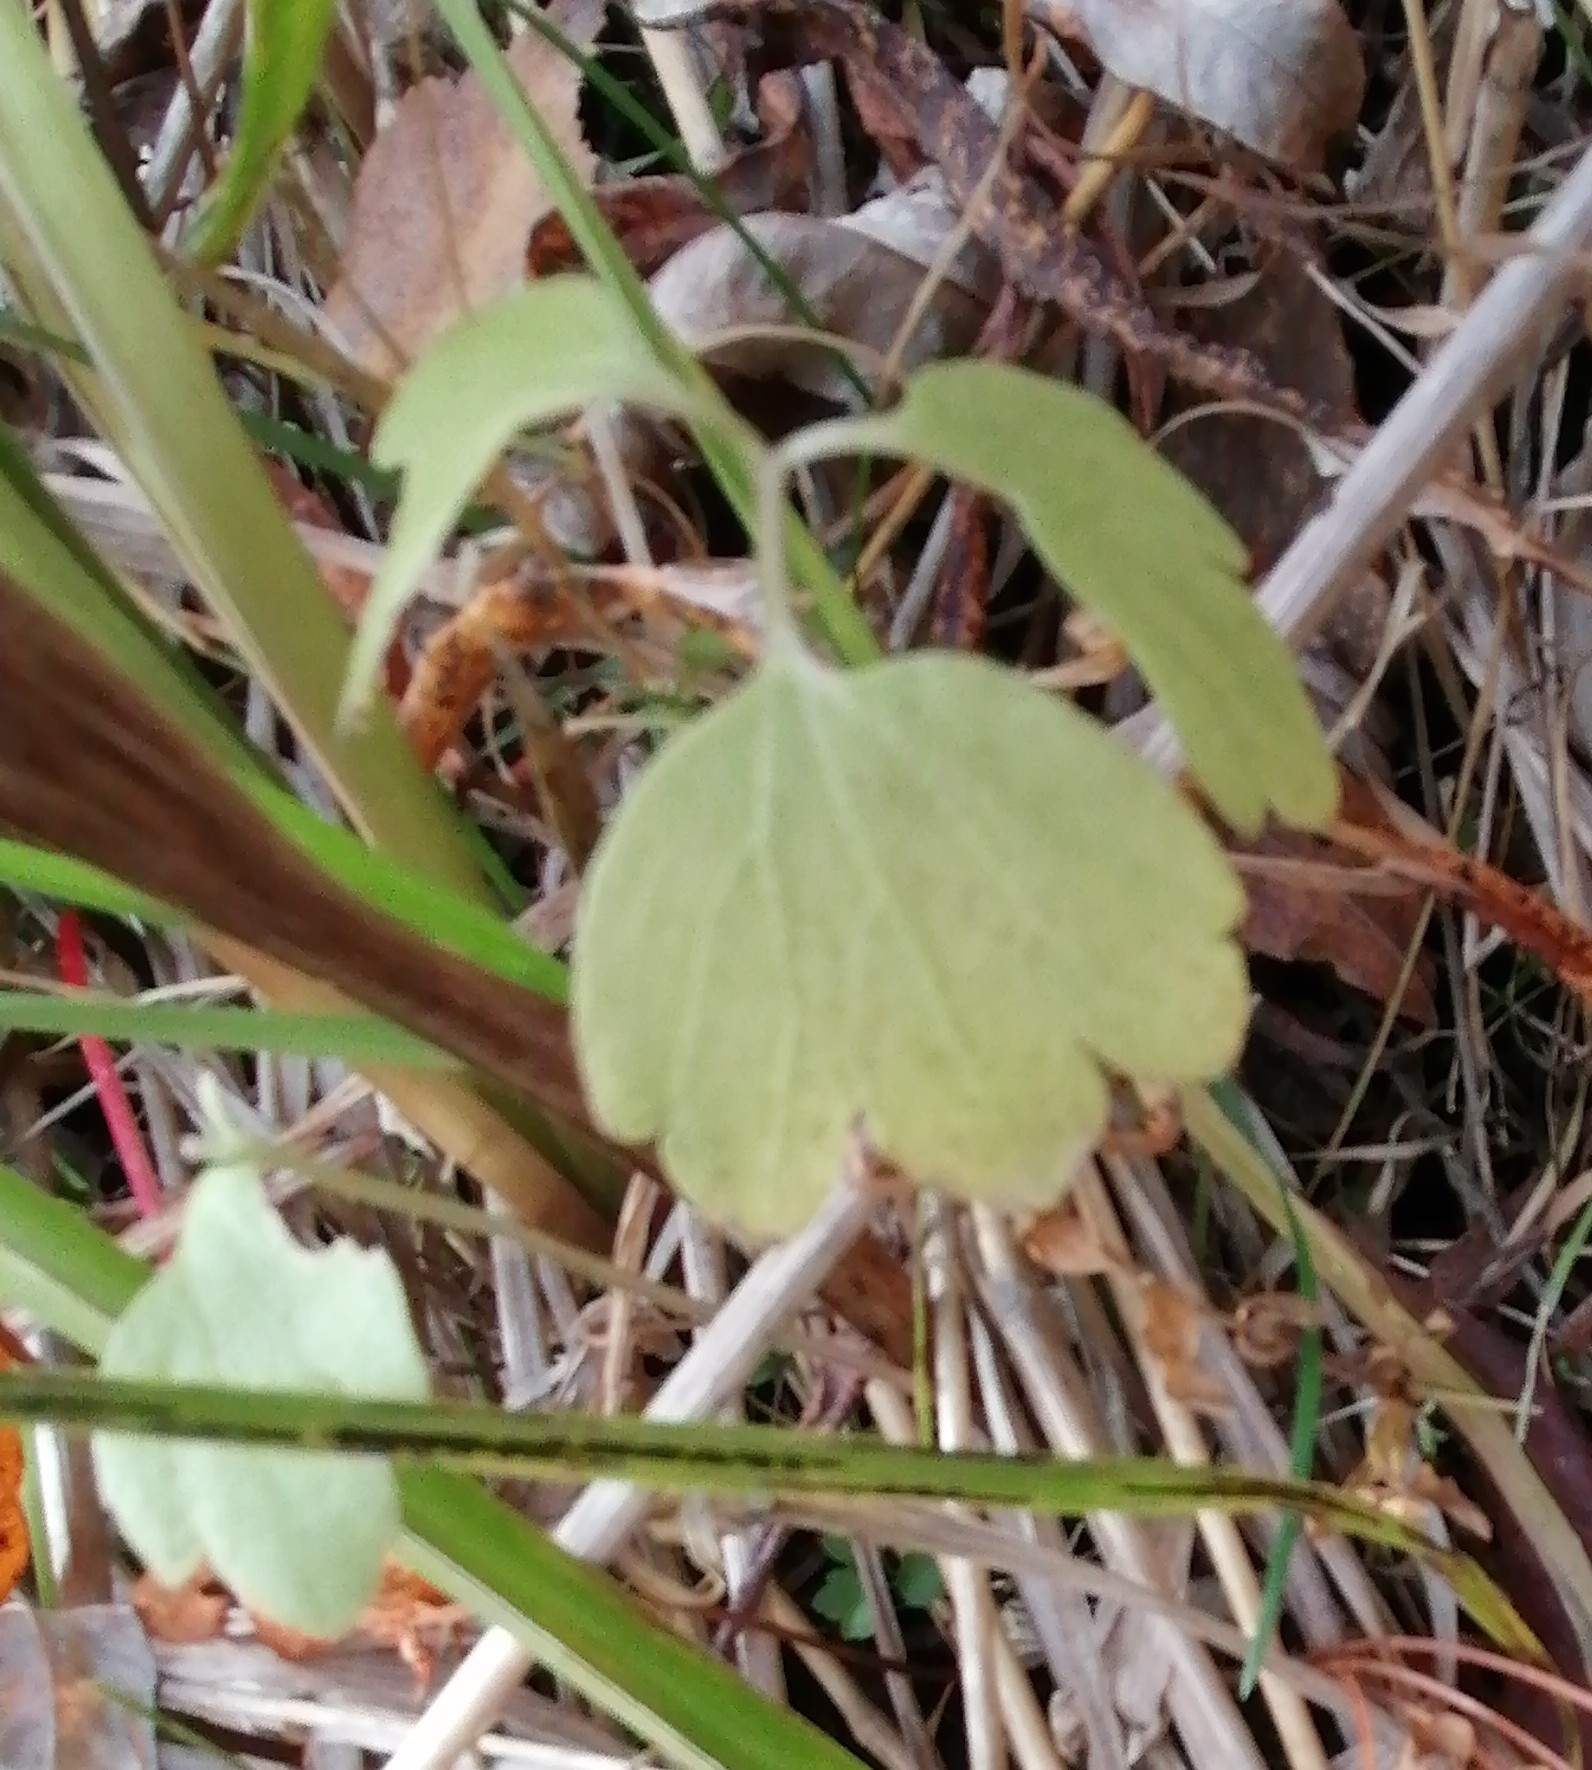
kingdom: Plantae
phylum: Tracheophyta
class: Magnoliopsida
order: Dipsacales
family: Viburnaceae
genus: Adoxa
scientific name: Adoxa moschatellina
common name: Moschatel
